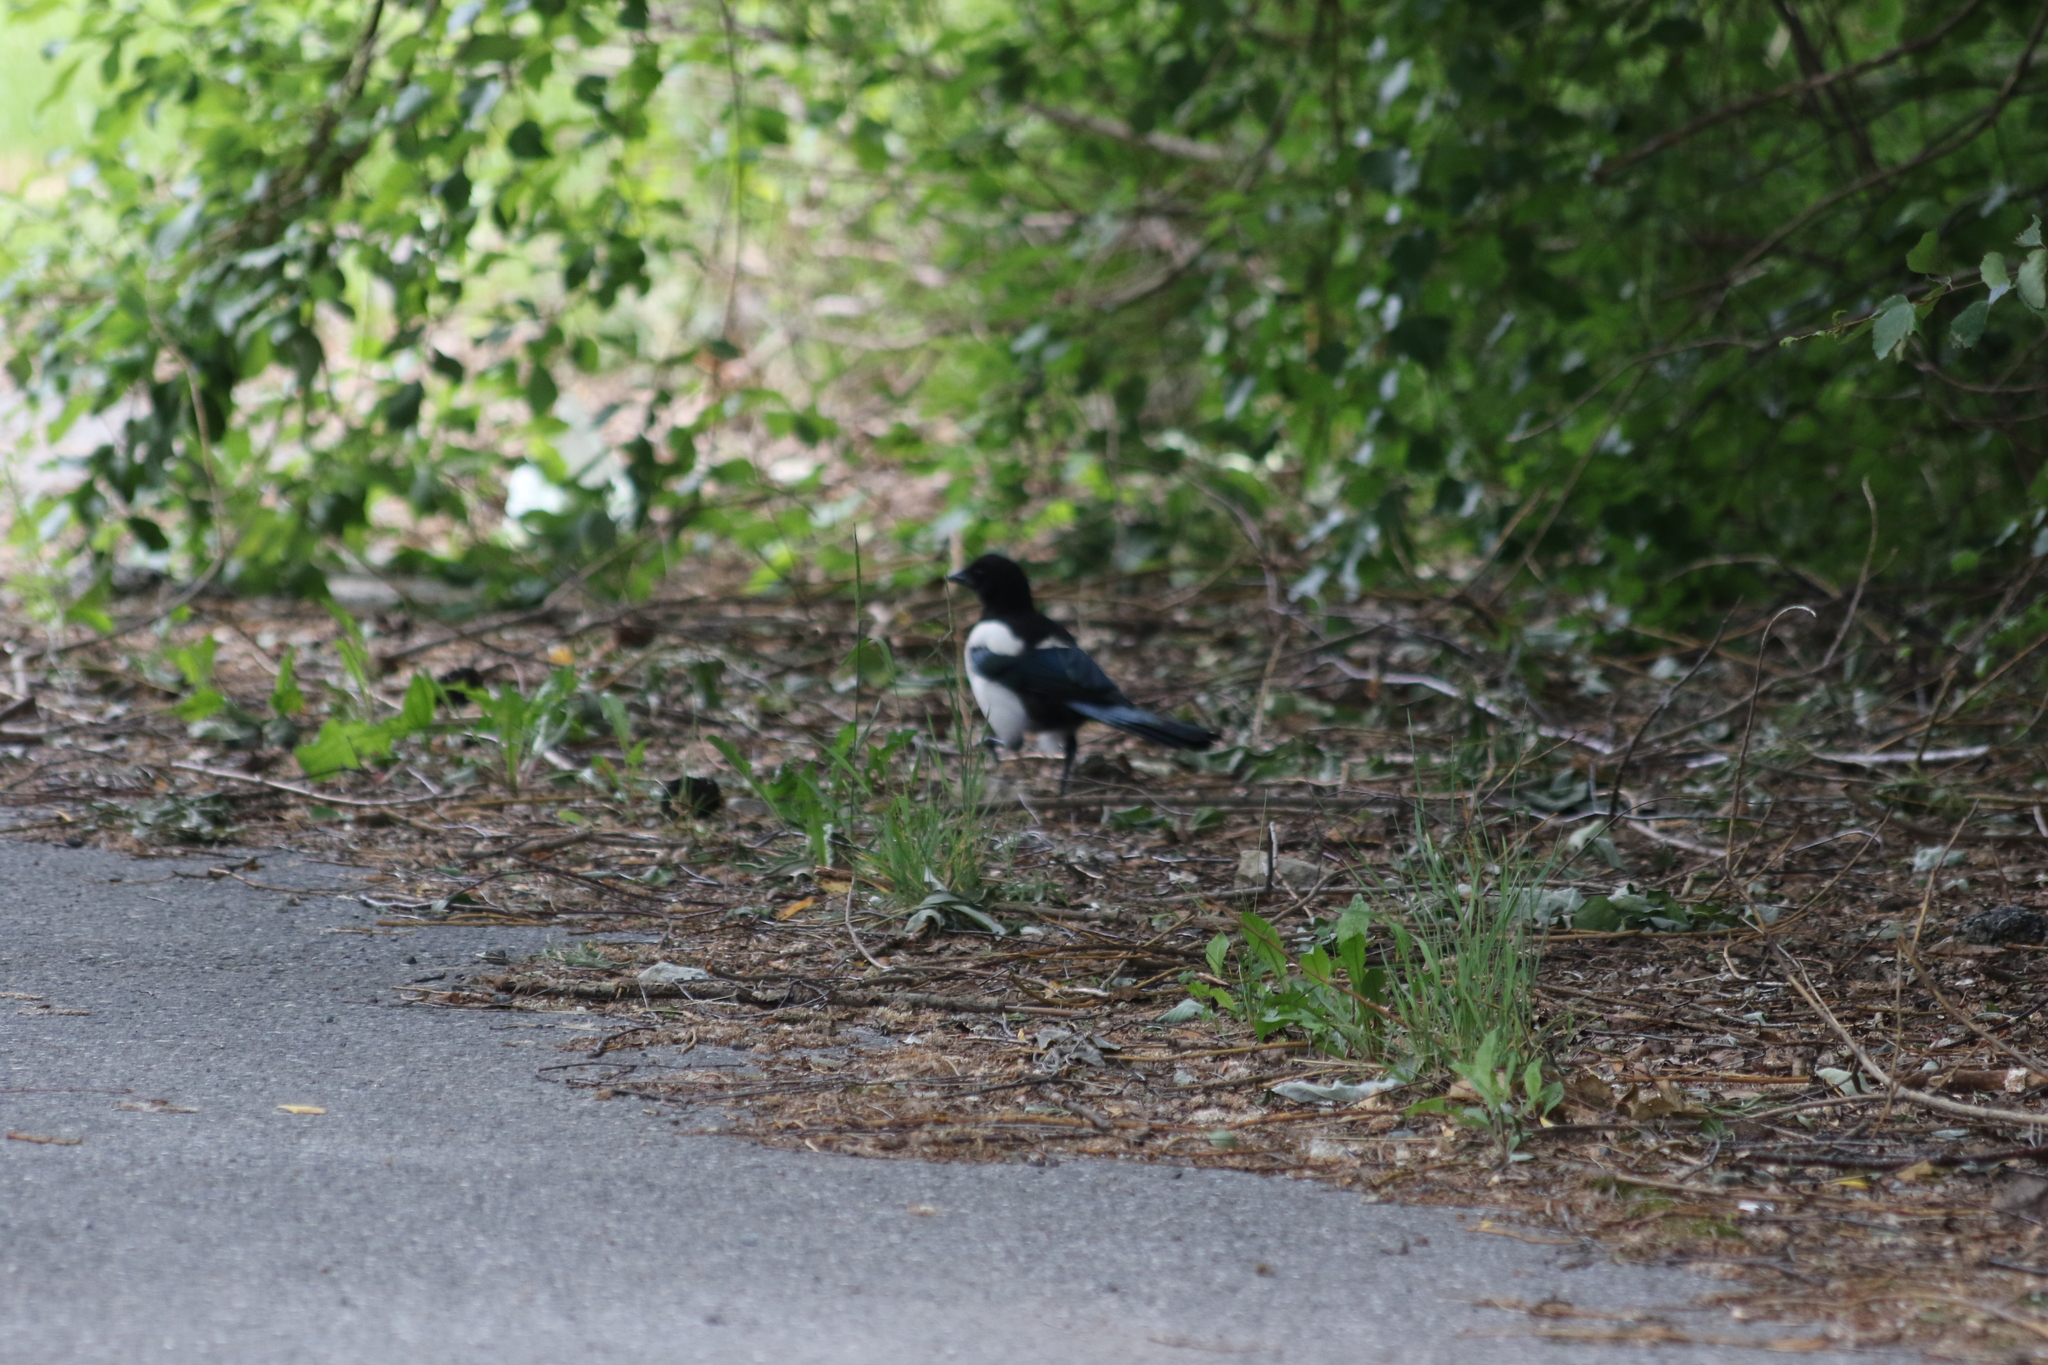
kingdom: Animalia
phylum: Chordata
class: Aves
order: Passeriformes
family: Corvidae
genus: Pica
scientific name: Pica pica
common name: Eurasian magpie
